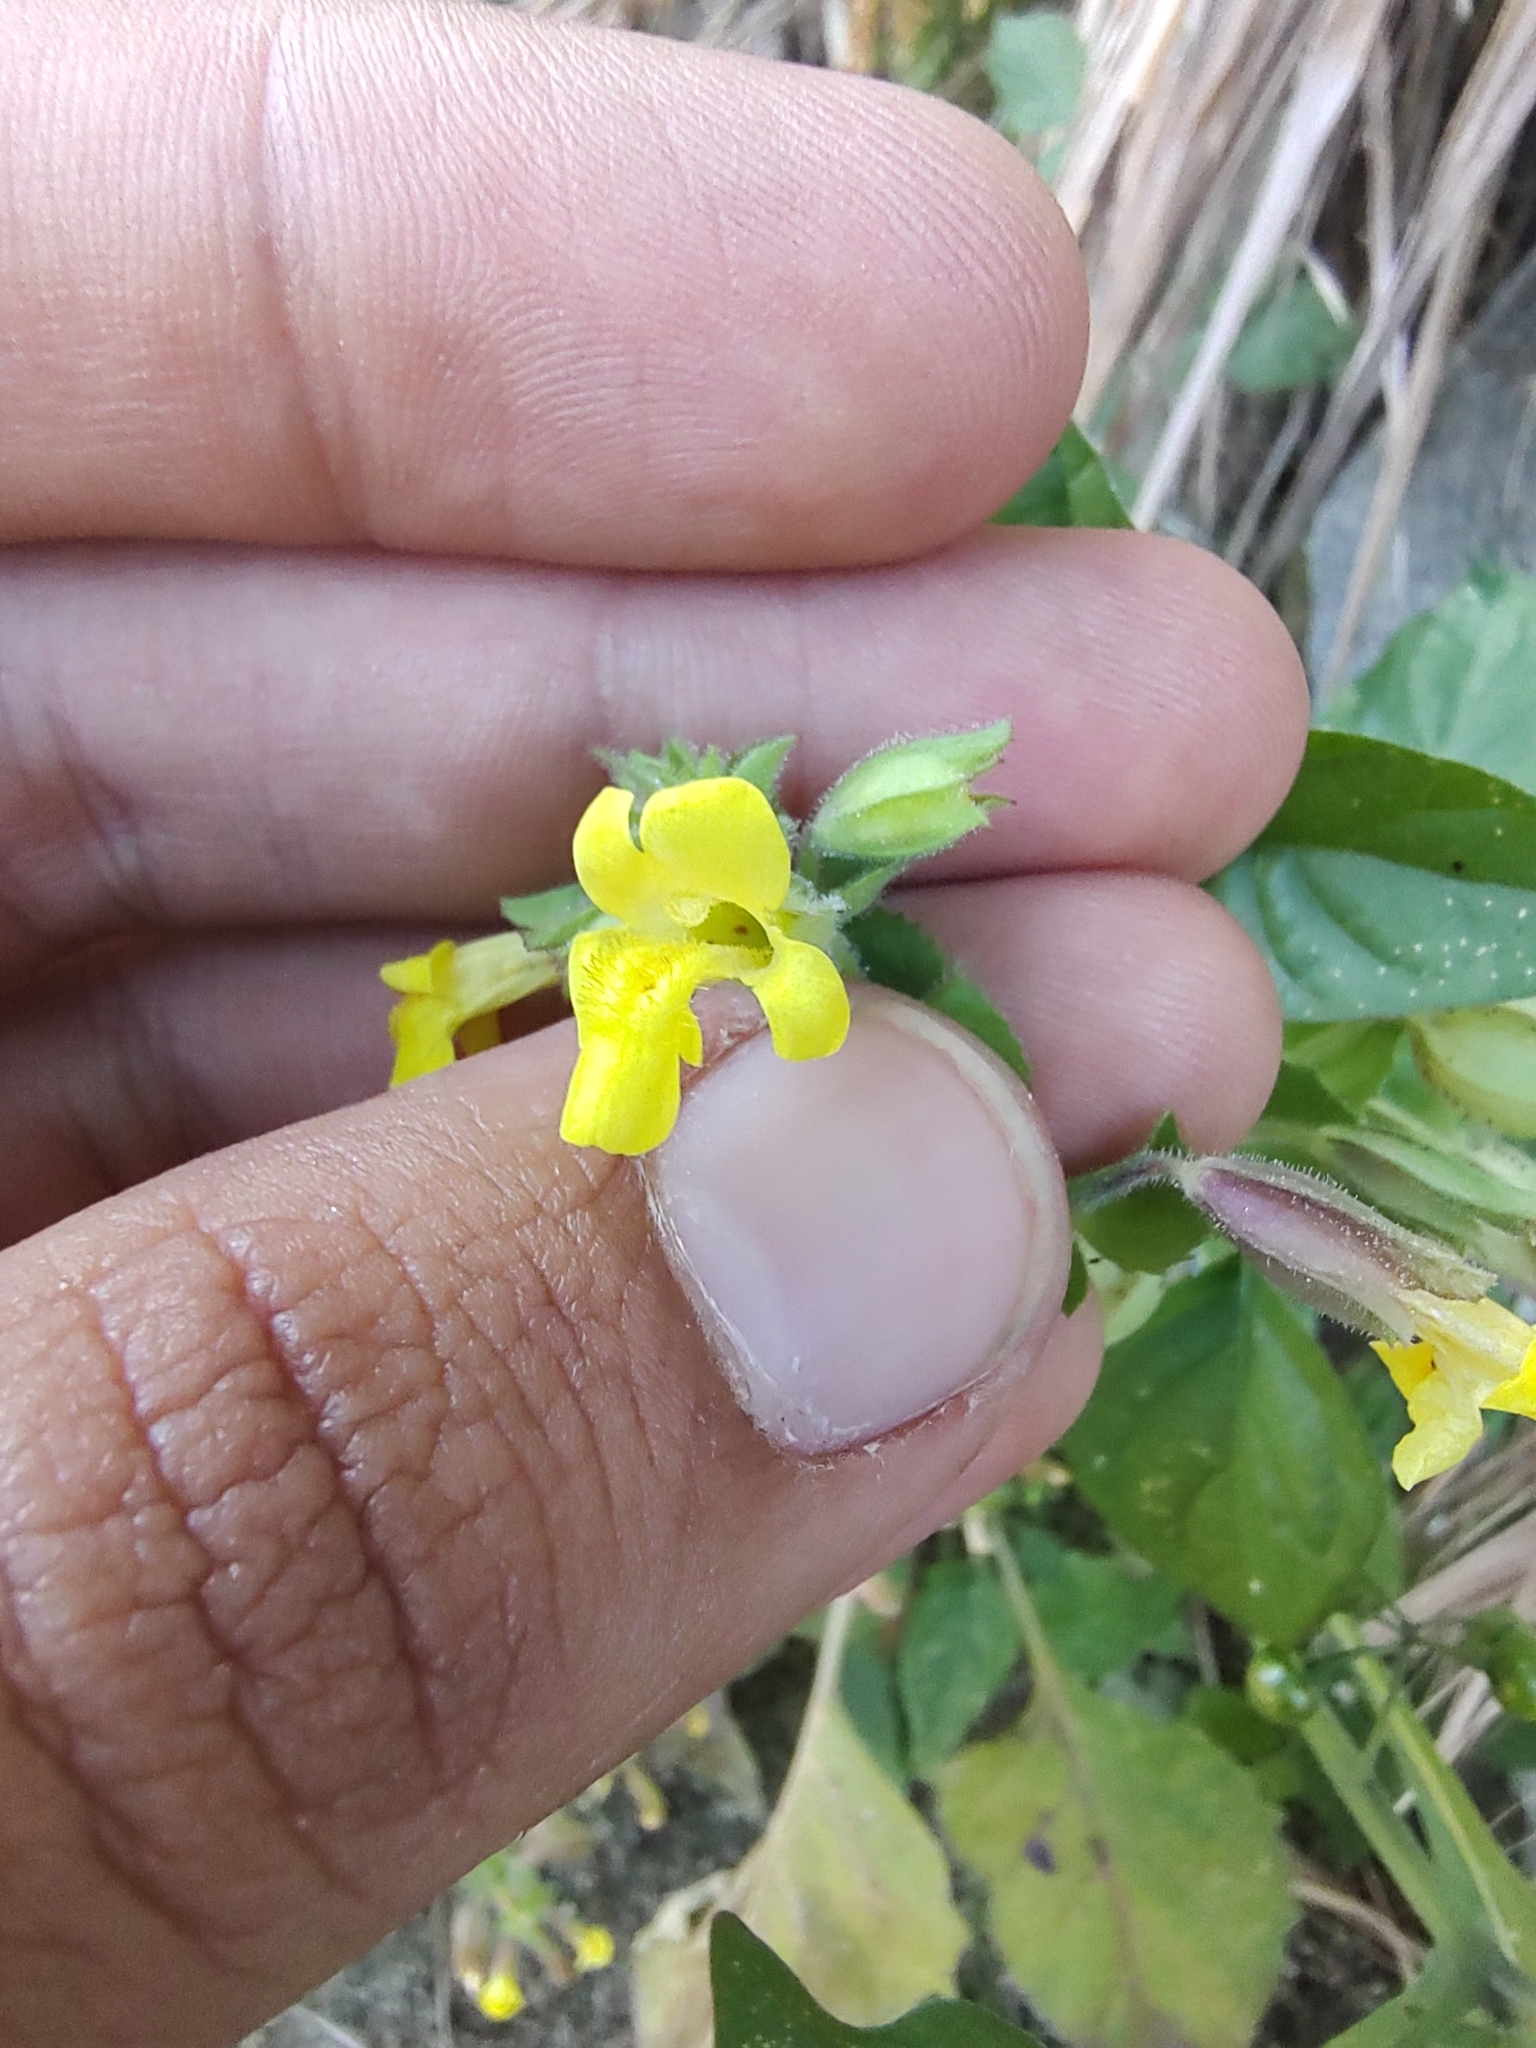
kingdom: Plantae
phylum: Tracheophyta
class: Magnoliopsida
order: Lamiales
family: Phrymaceae
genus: Erythranthe
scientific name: Erythranthe lagunensis
